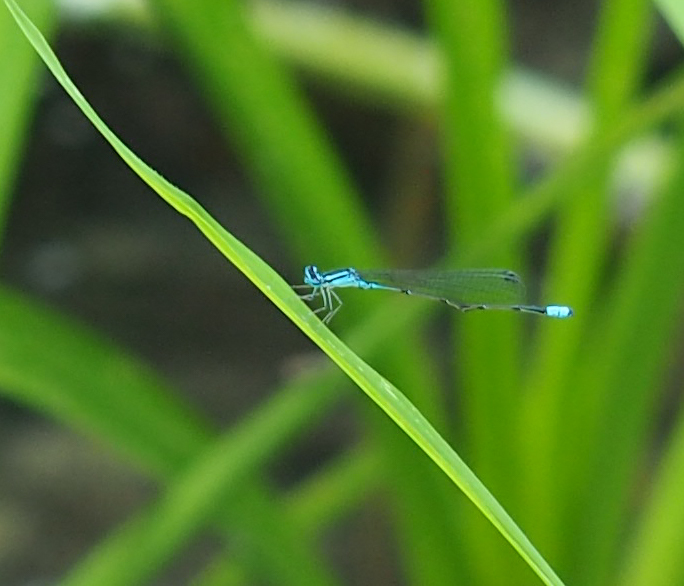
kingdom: Animalia
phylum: Arthropoda
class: Insecta
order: Odonata
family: Coenagrionidae
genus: Enallagma
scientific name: Enallagma divagans
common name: Turquoise bluet
